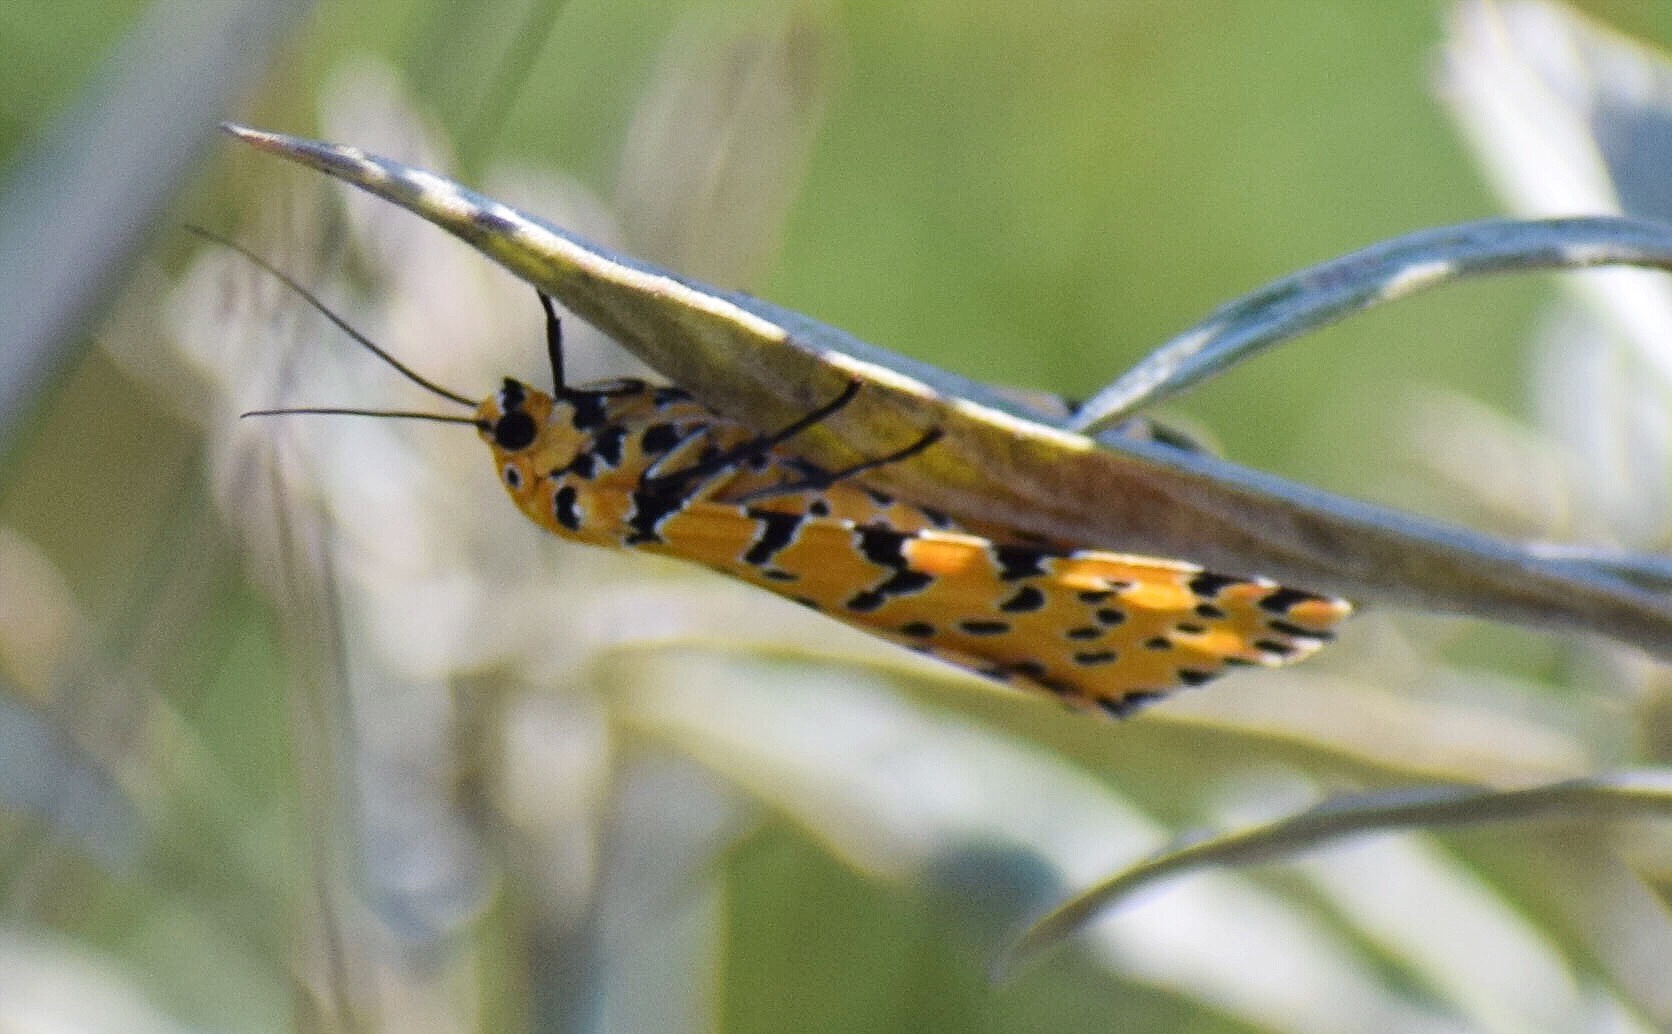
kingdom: Animalia
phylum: Arthropoda
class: Insecta
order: Lepidoptera
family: Erebidae
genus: Argina
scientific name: Argina Alytarchia amanda
